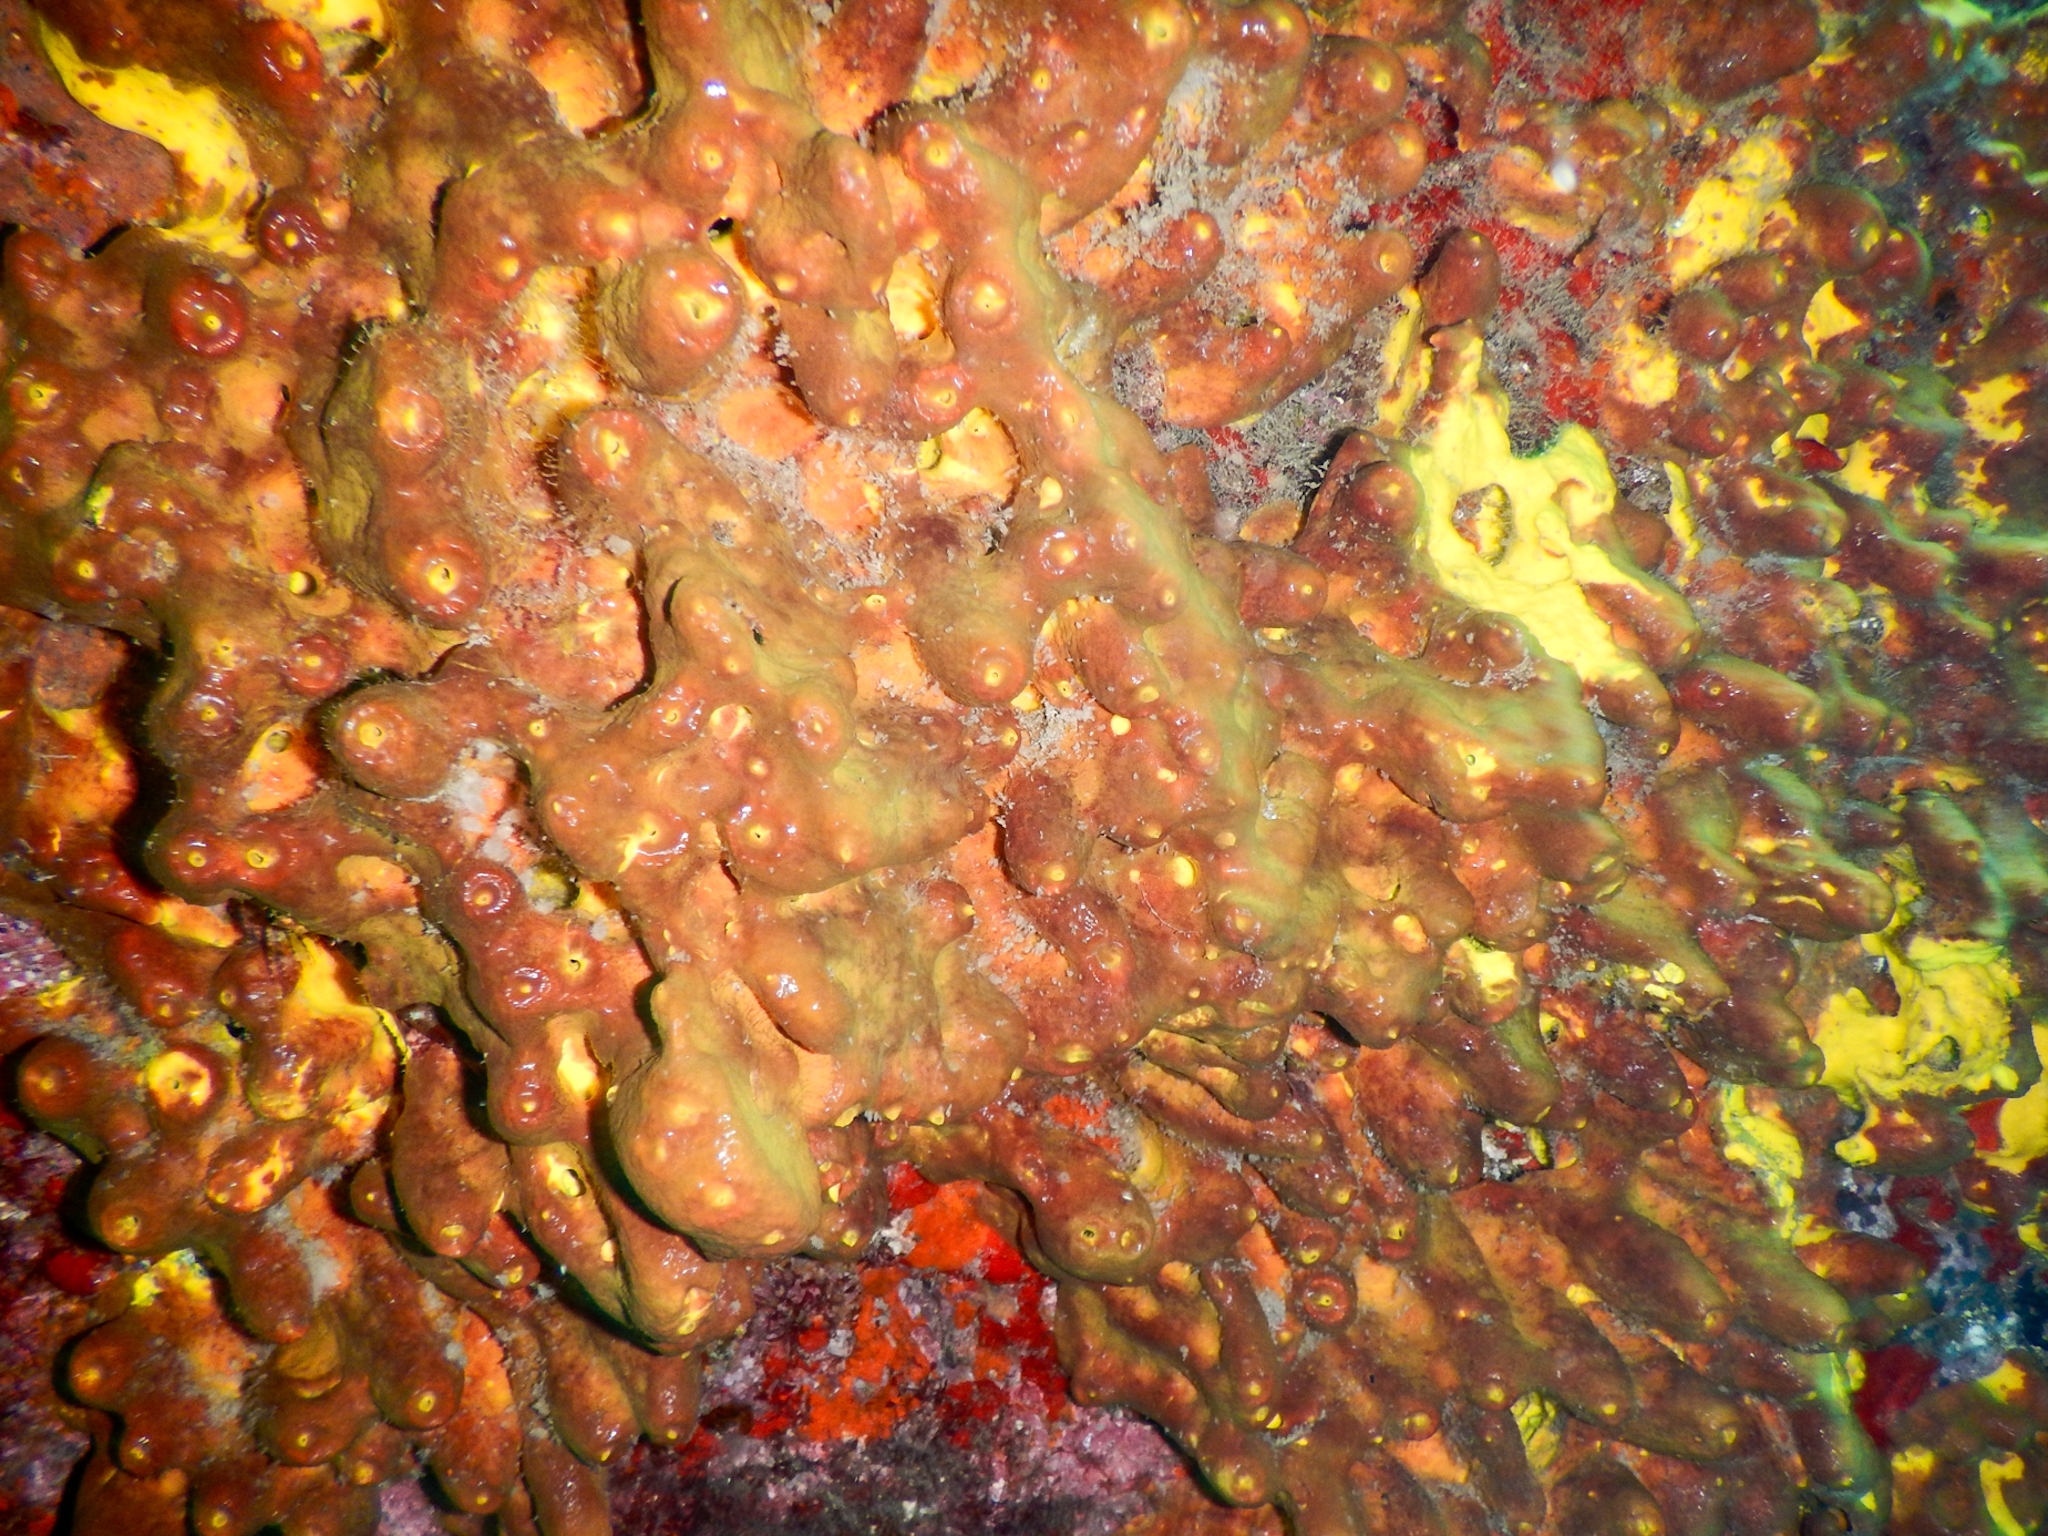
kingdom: Animalia
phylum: Porifera
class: Demospongiae
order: Verongiida
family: Aplysinidae
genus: Aplysina
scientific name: Aplysina aerophoba
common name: Aureate sponge
